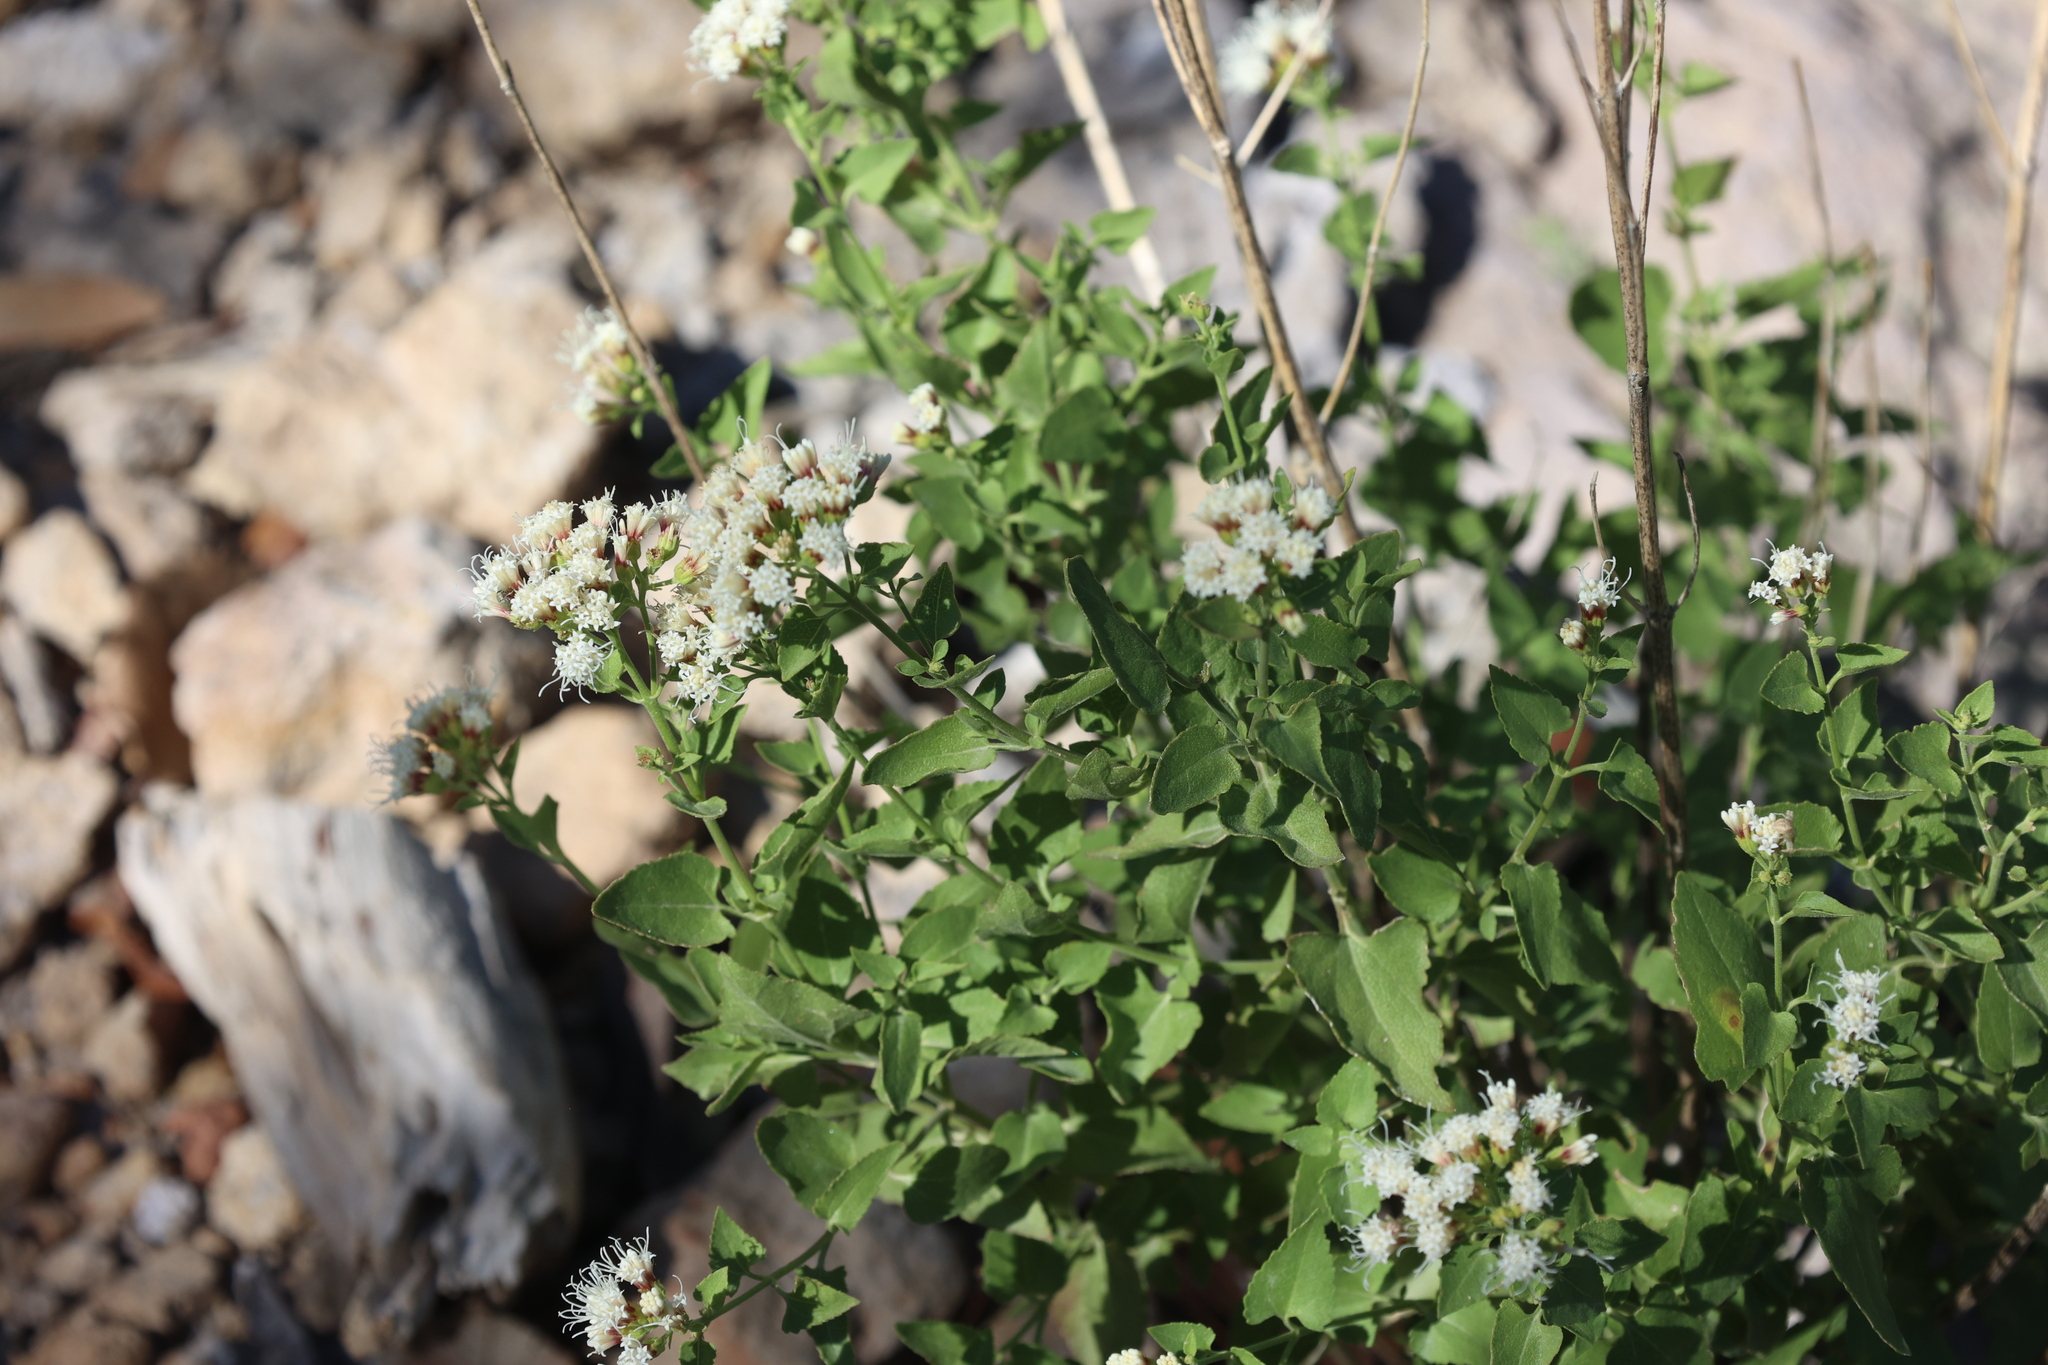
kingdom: Plantae
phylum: Tracheophyta
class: Magnoliopsida
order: Asterales
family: Asteraceae
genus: Ageratina
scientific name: Ageratina herbacea
